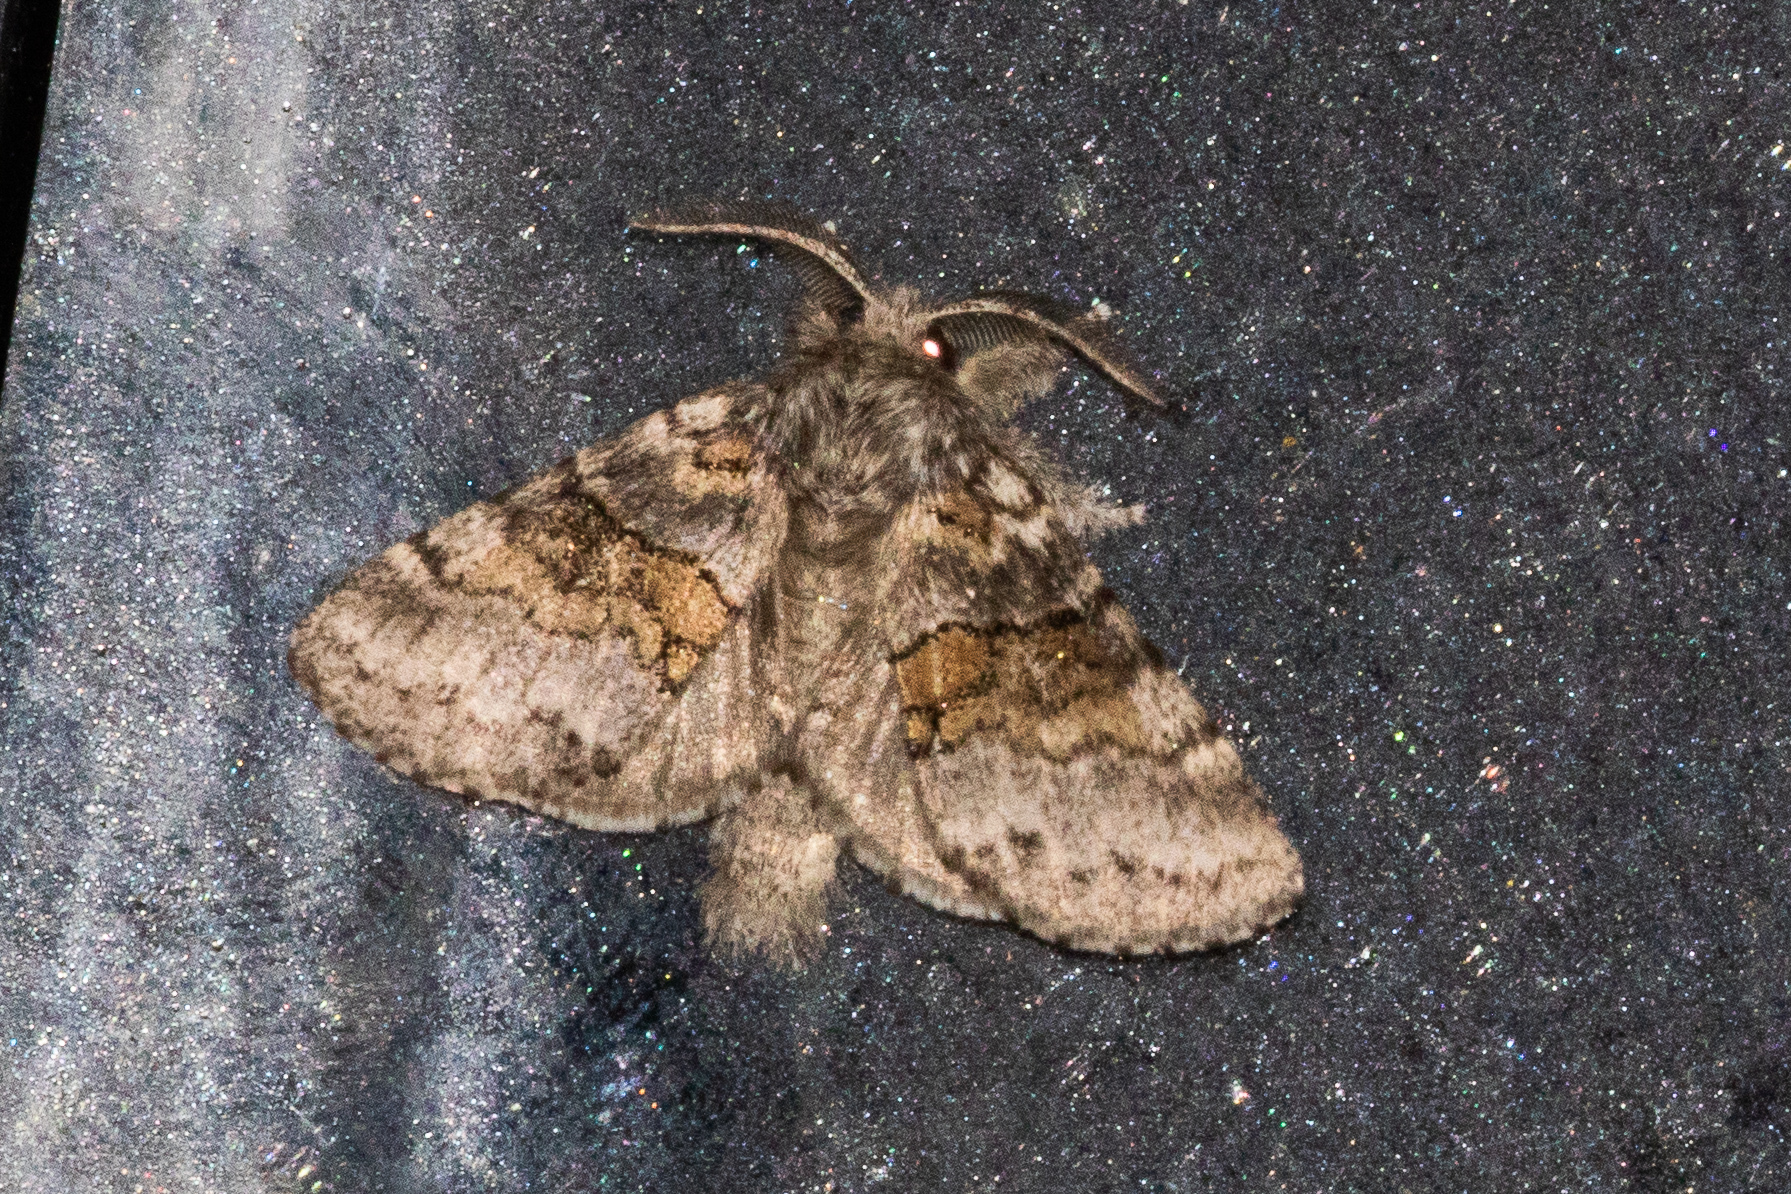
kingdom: Animalia
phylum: Arthropoda
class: Insecta
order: Lepidoptera
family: Notodontidae
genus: Gluphisia
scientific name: Gluphisia septentrionis
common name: Common gluphisia
